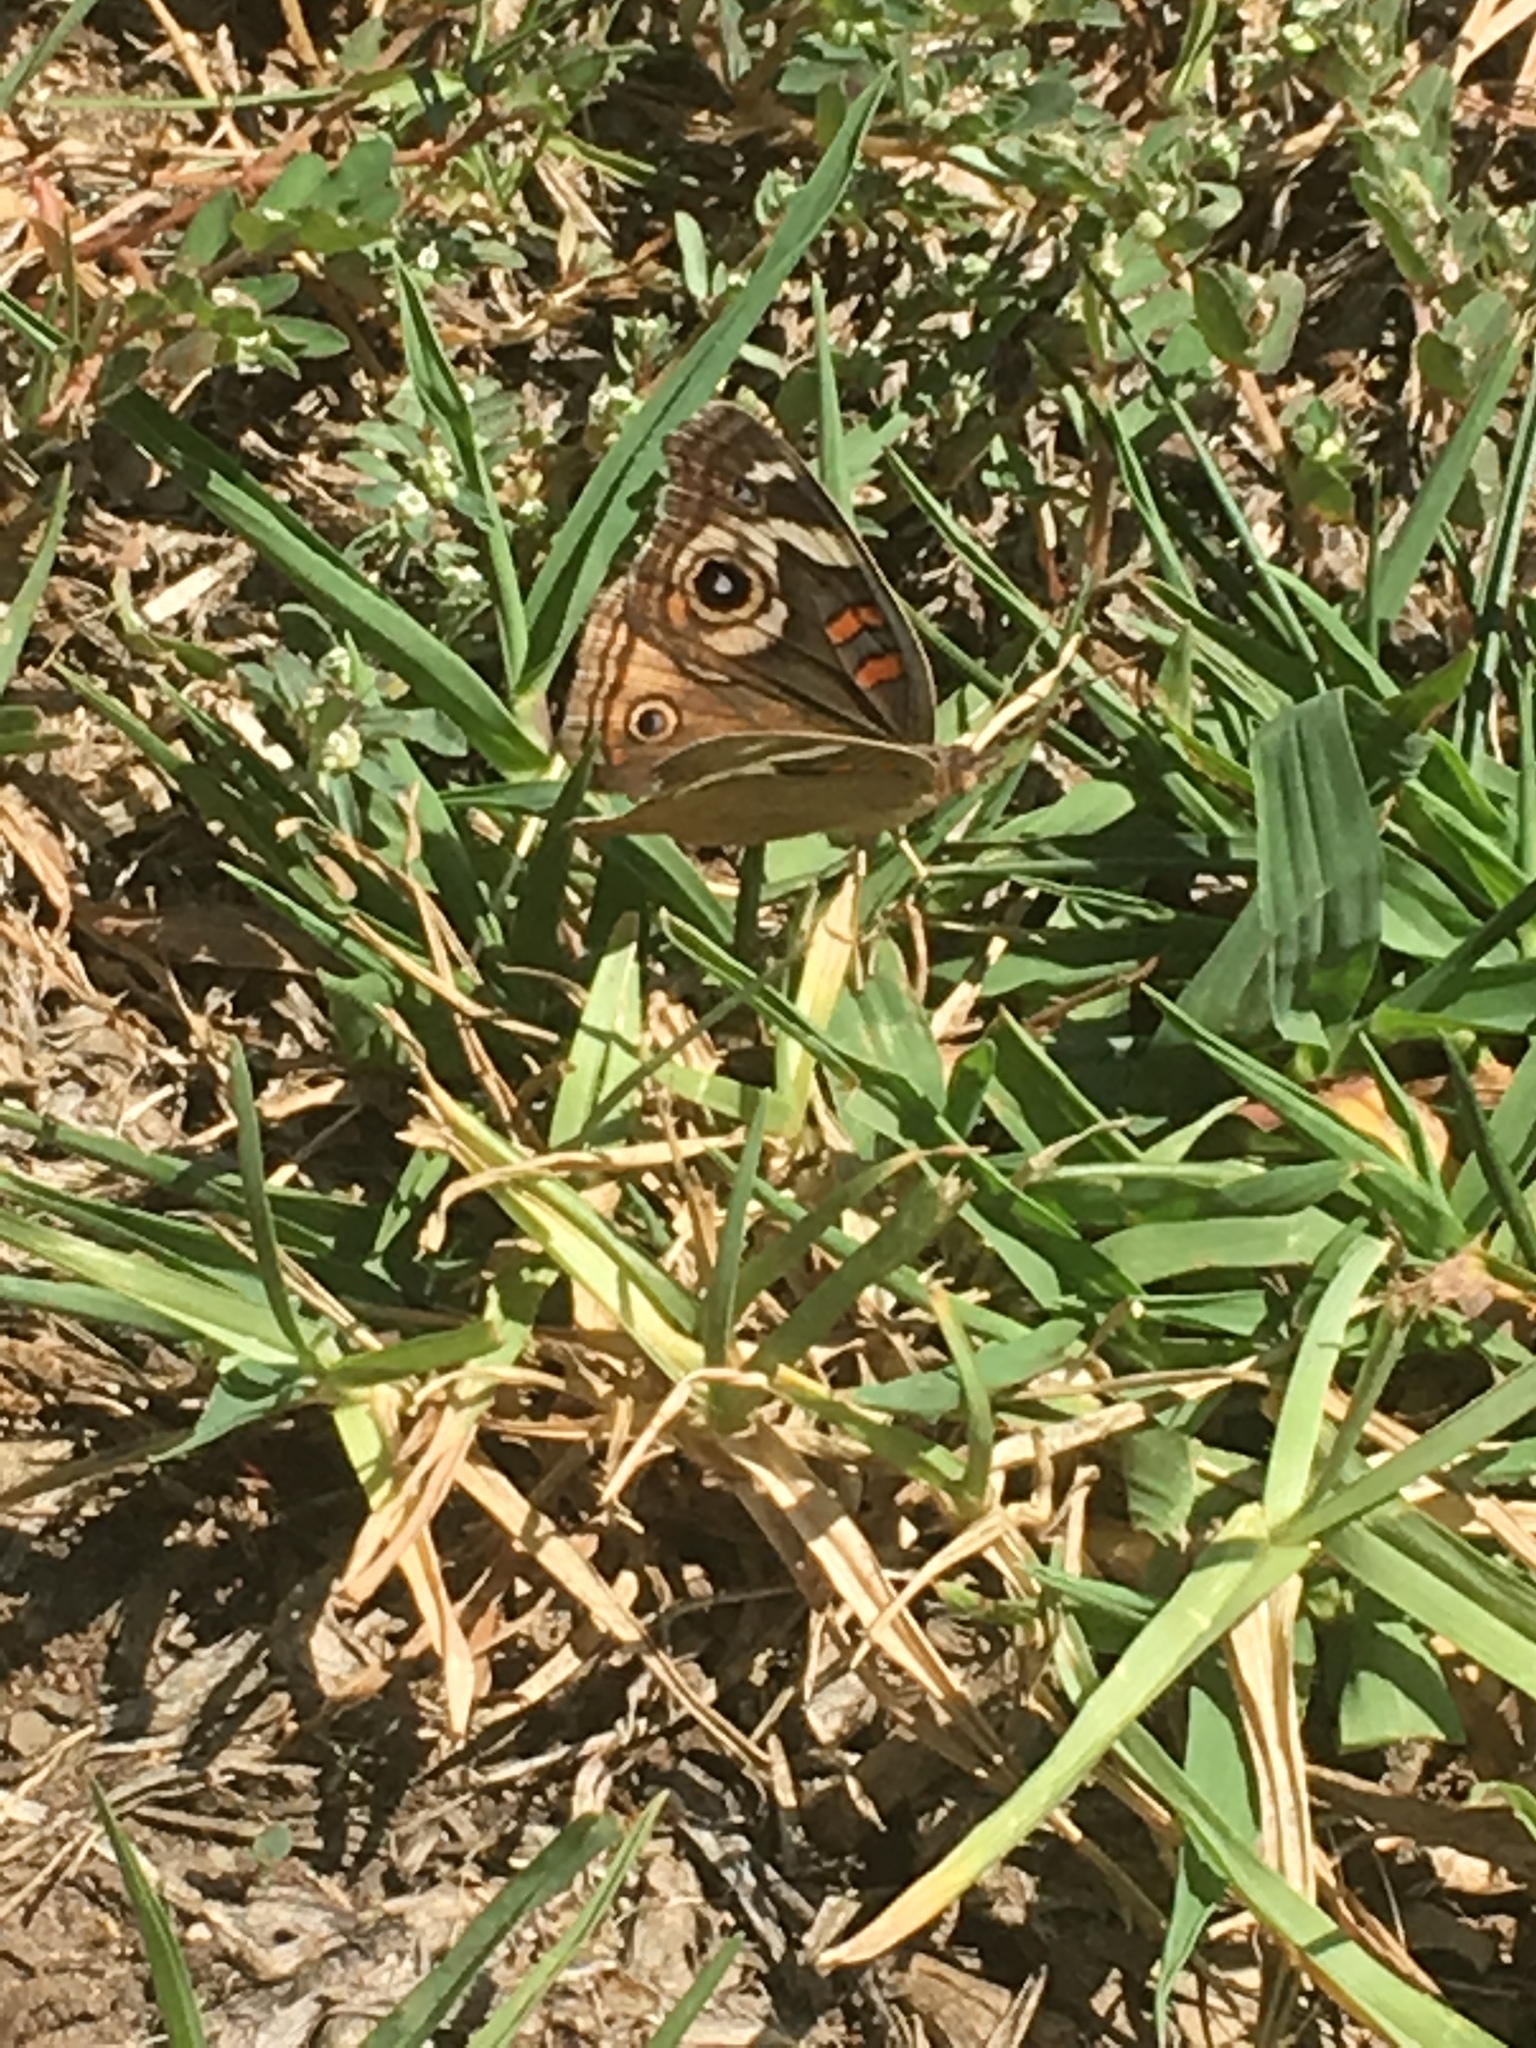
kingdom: Animalia
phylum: Arthropoda
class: Insecta
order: Lepidoptera
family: Nymphalidae
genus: Junonia
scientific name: Junonia grisea
